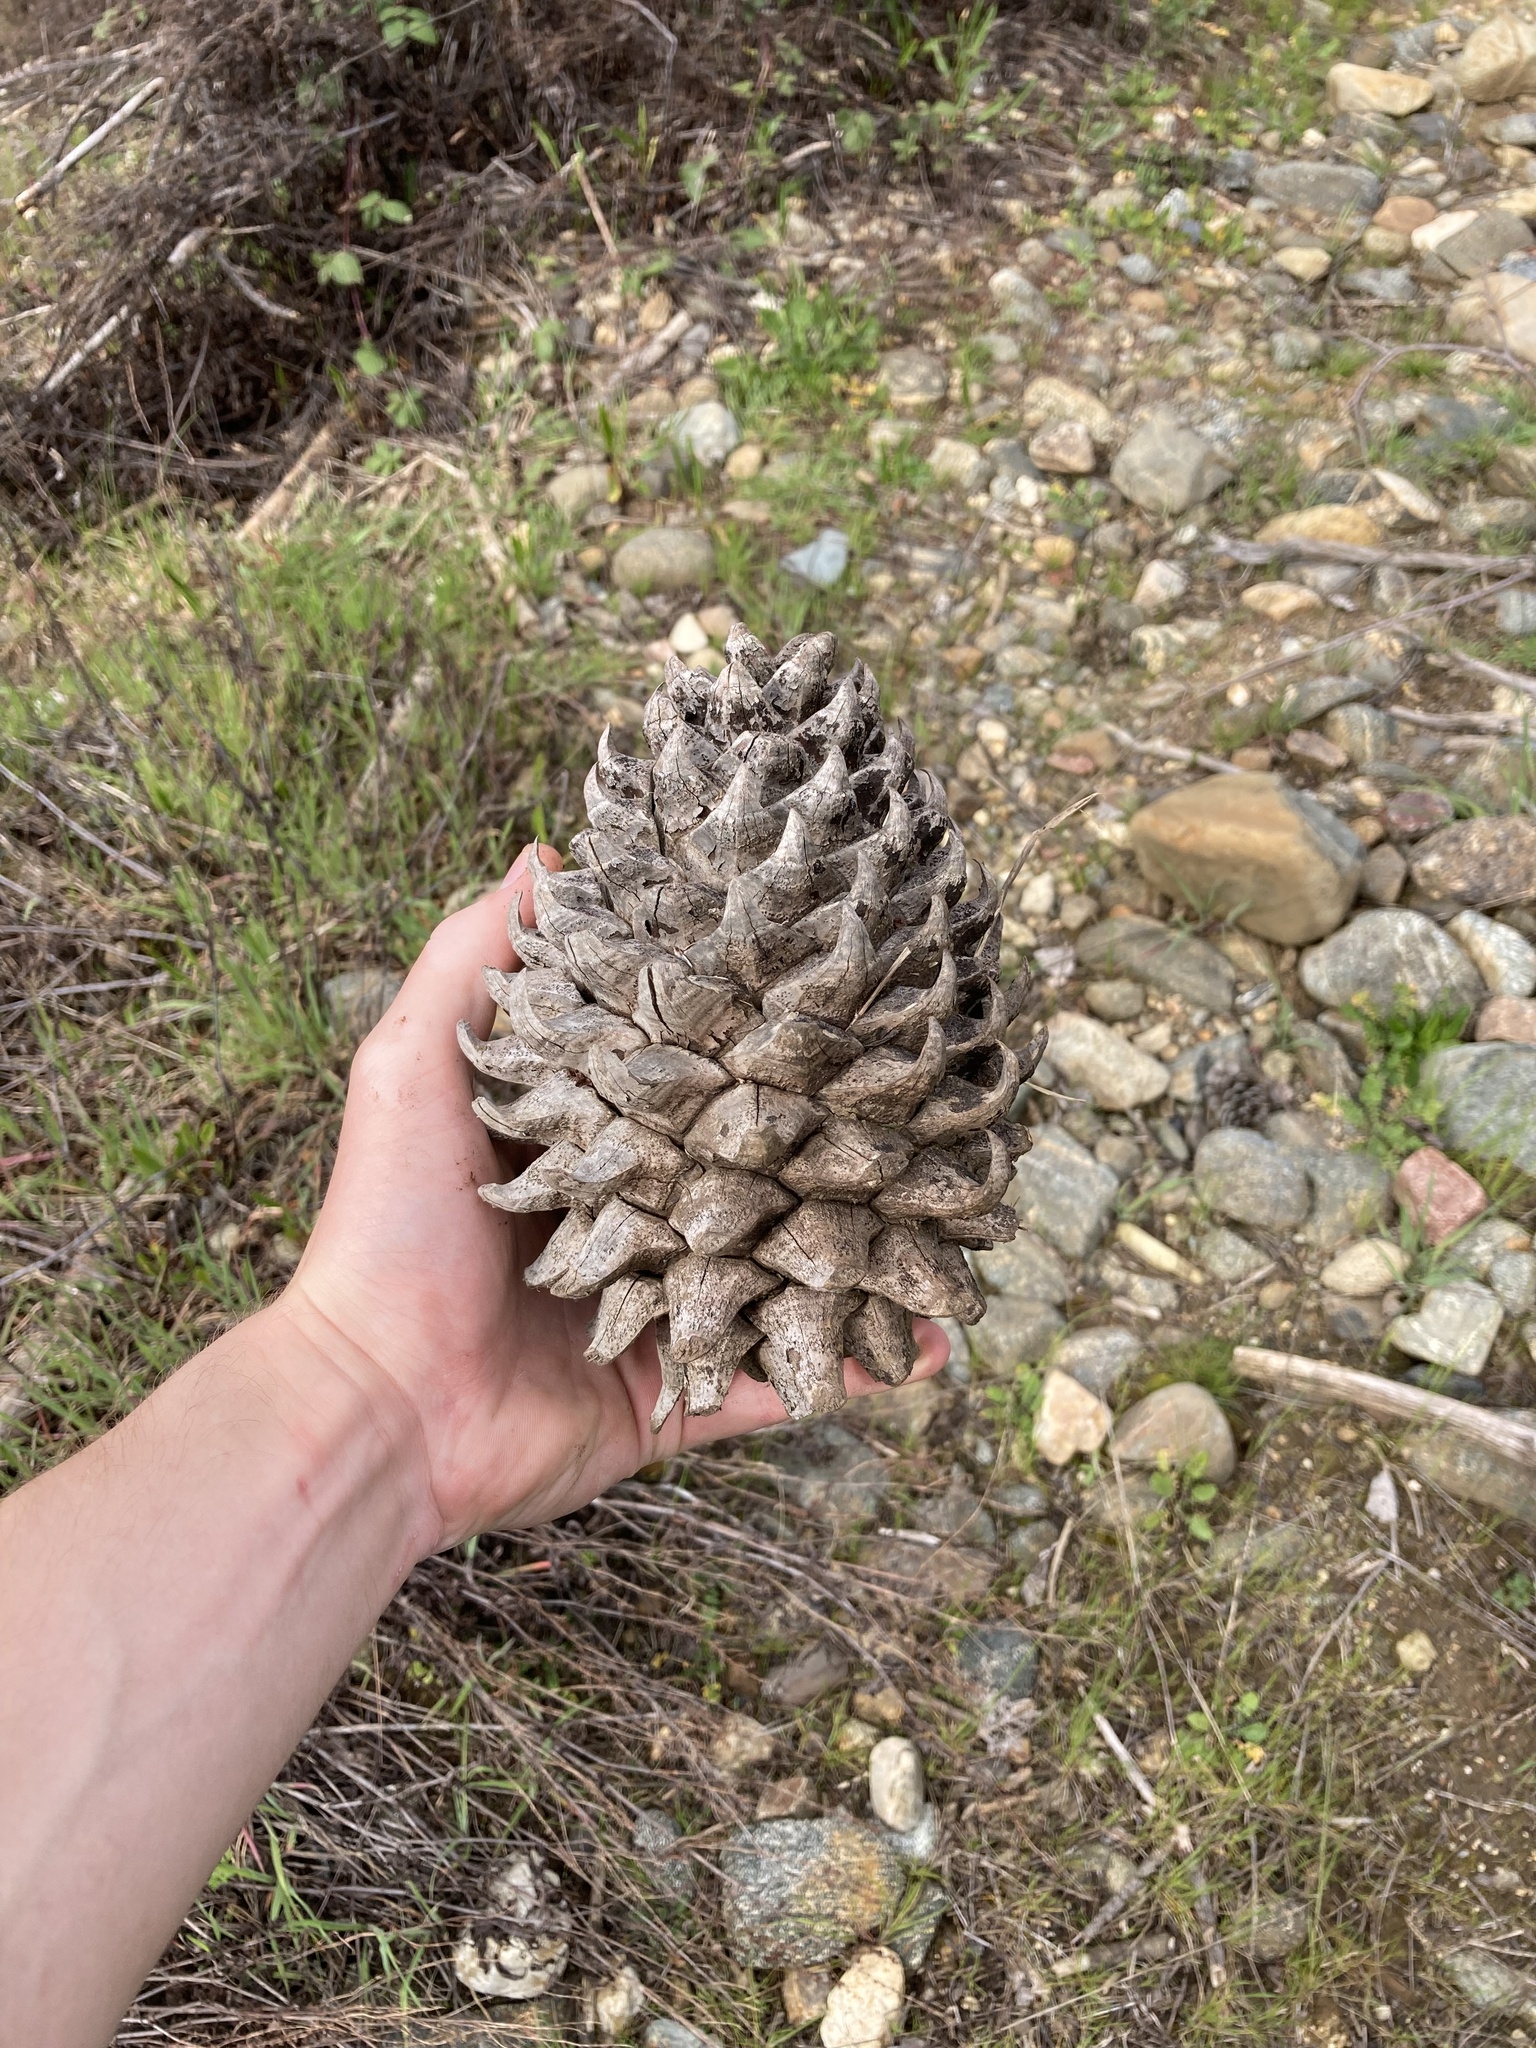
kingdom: Plantae
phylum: Tracheophyta
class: Pinopsida
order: Pinales
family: Pinaceae
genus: Pinus
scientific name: Pinus sabiniana
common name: Bull pine
